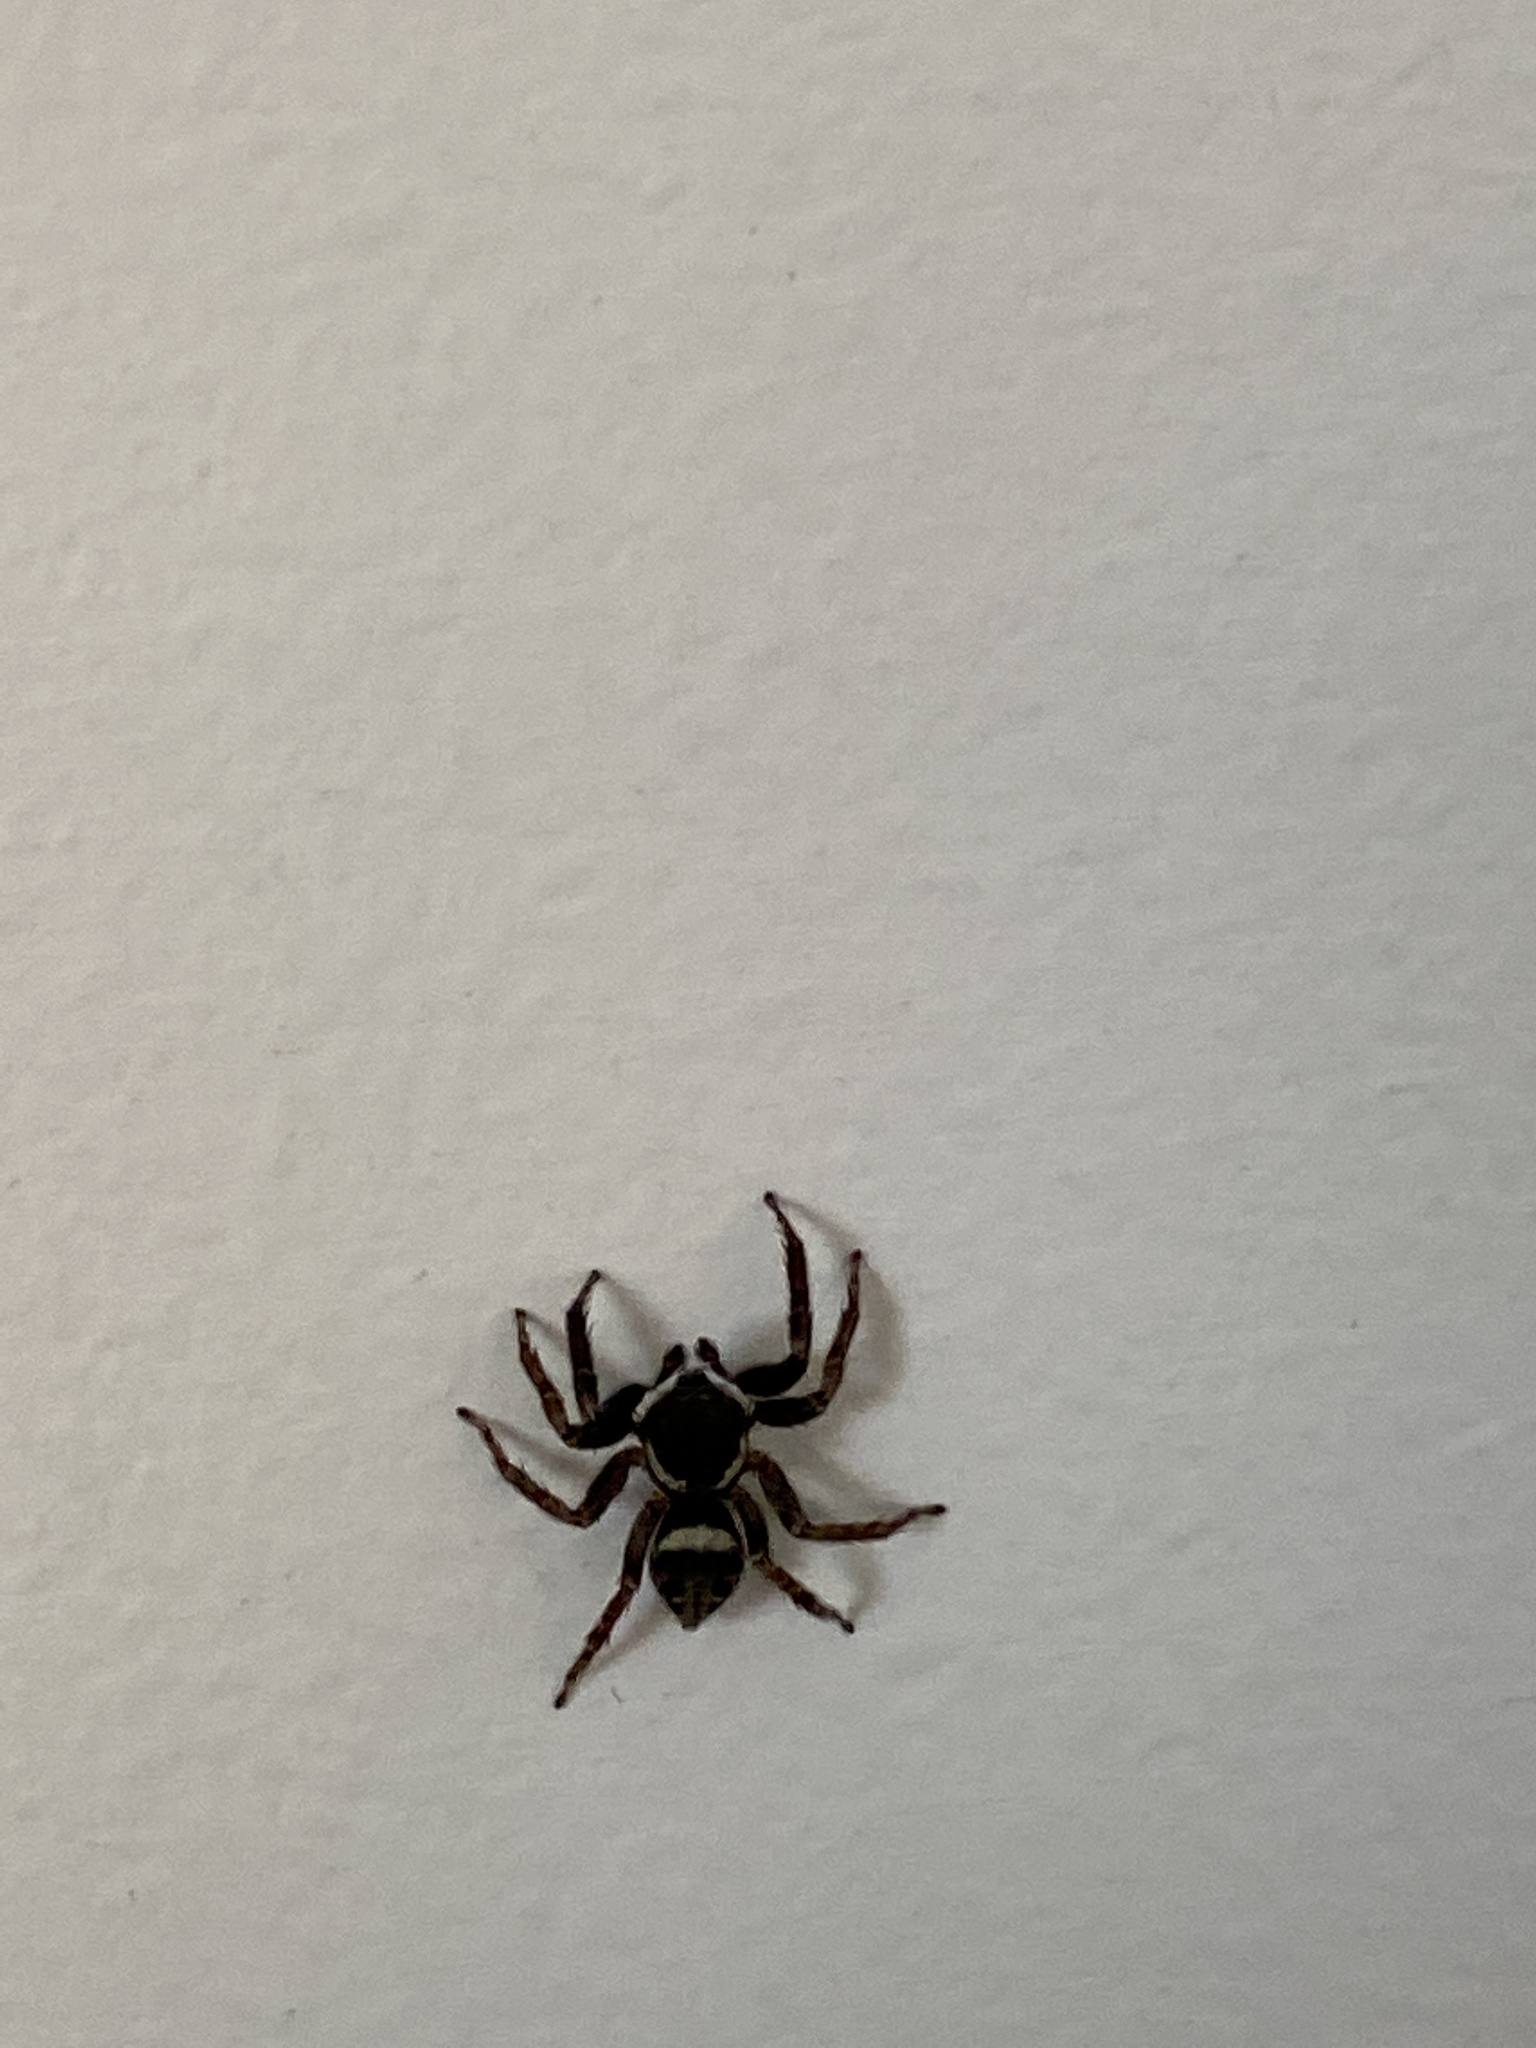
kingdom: Animalia
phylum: Arthropoda
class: Arachnida
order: Araneae
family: Salticidae
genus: Hasarius
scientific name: Hasarius adansoni
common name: Jumping spider
